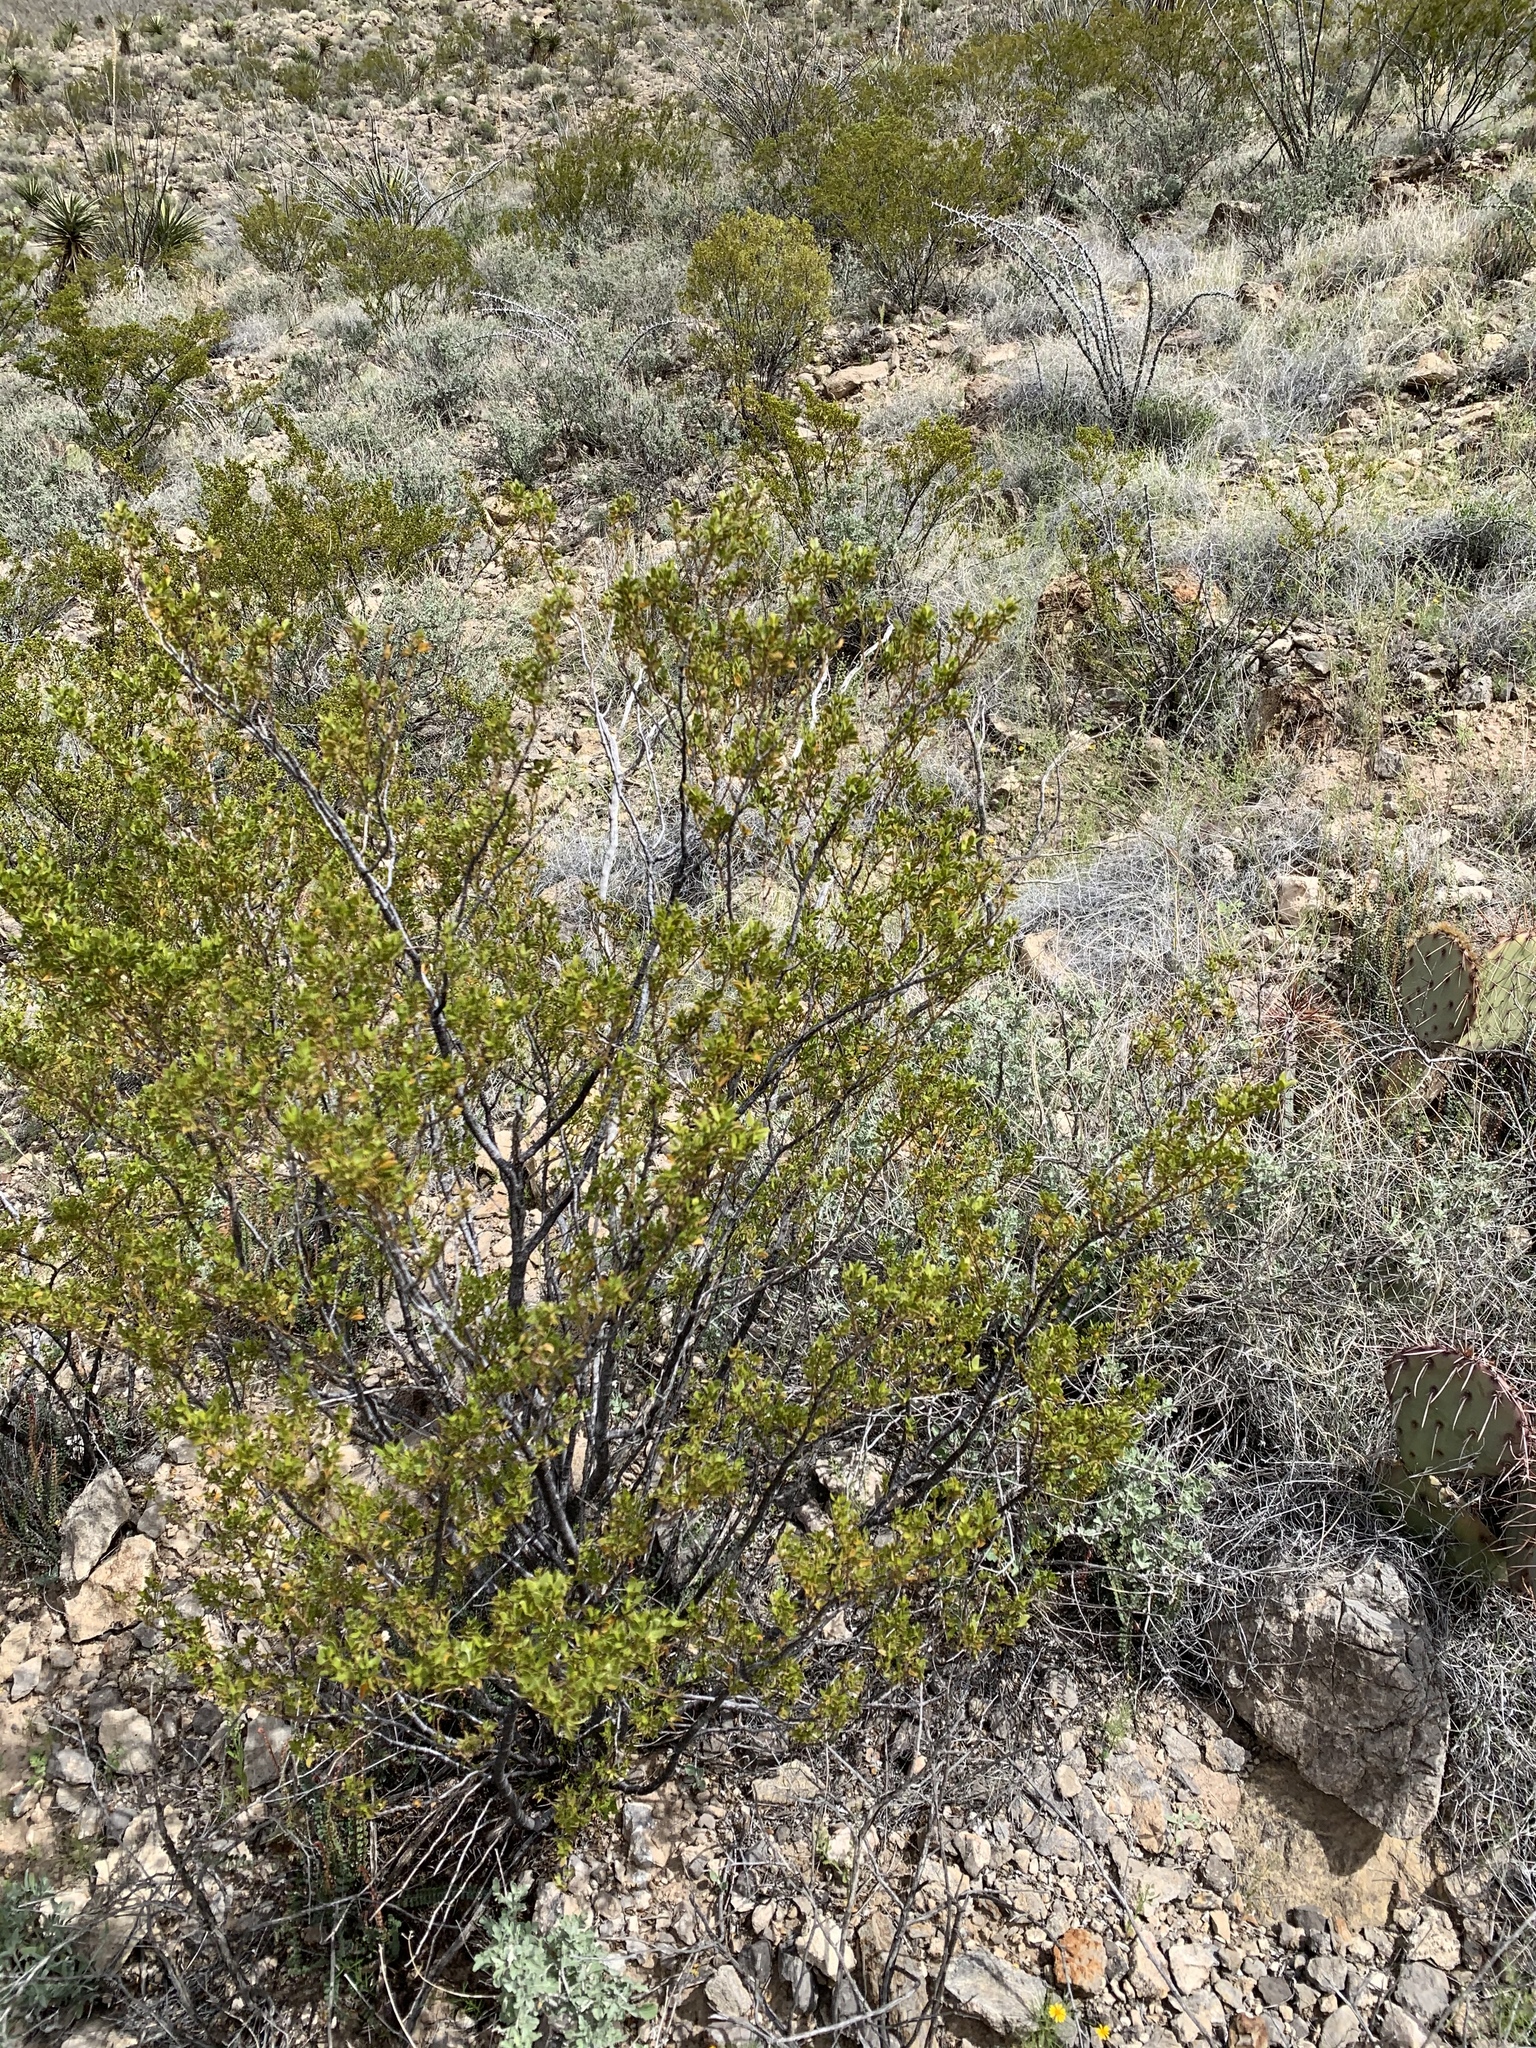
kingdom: Plantae
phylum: Tracheophyta
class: Magnoliopsida
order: Zygophyllales
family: Zygophyllaceae
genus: Larrea
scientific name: Larrea tridentata
